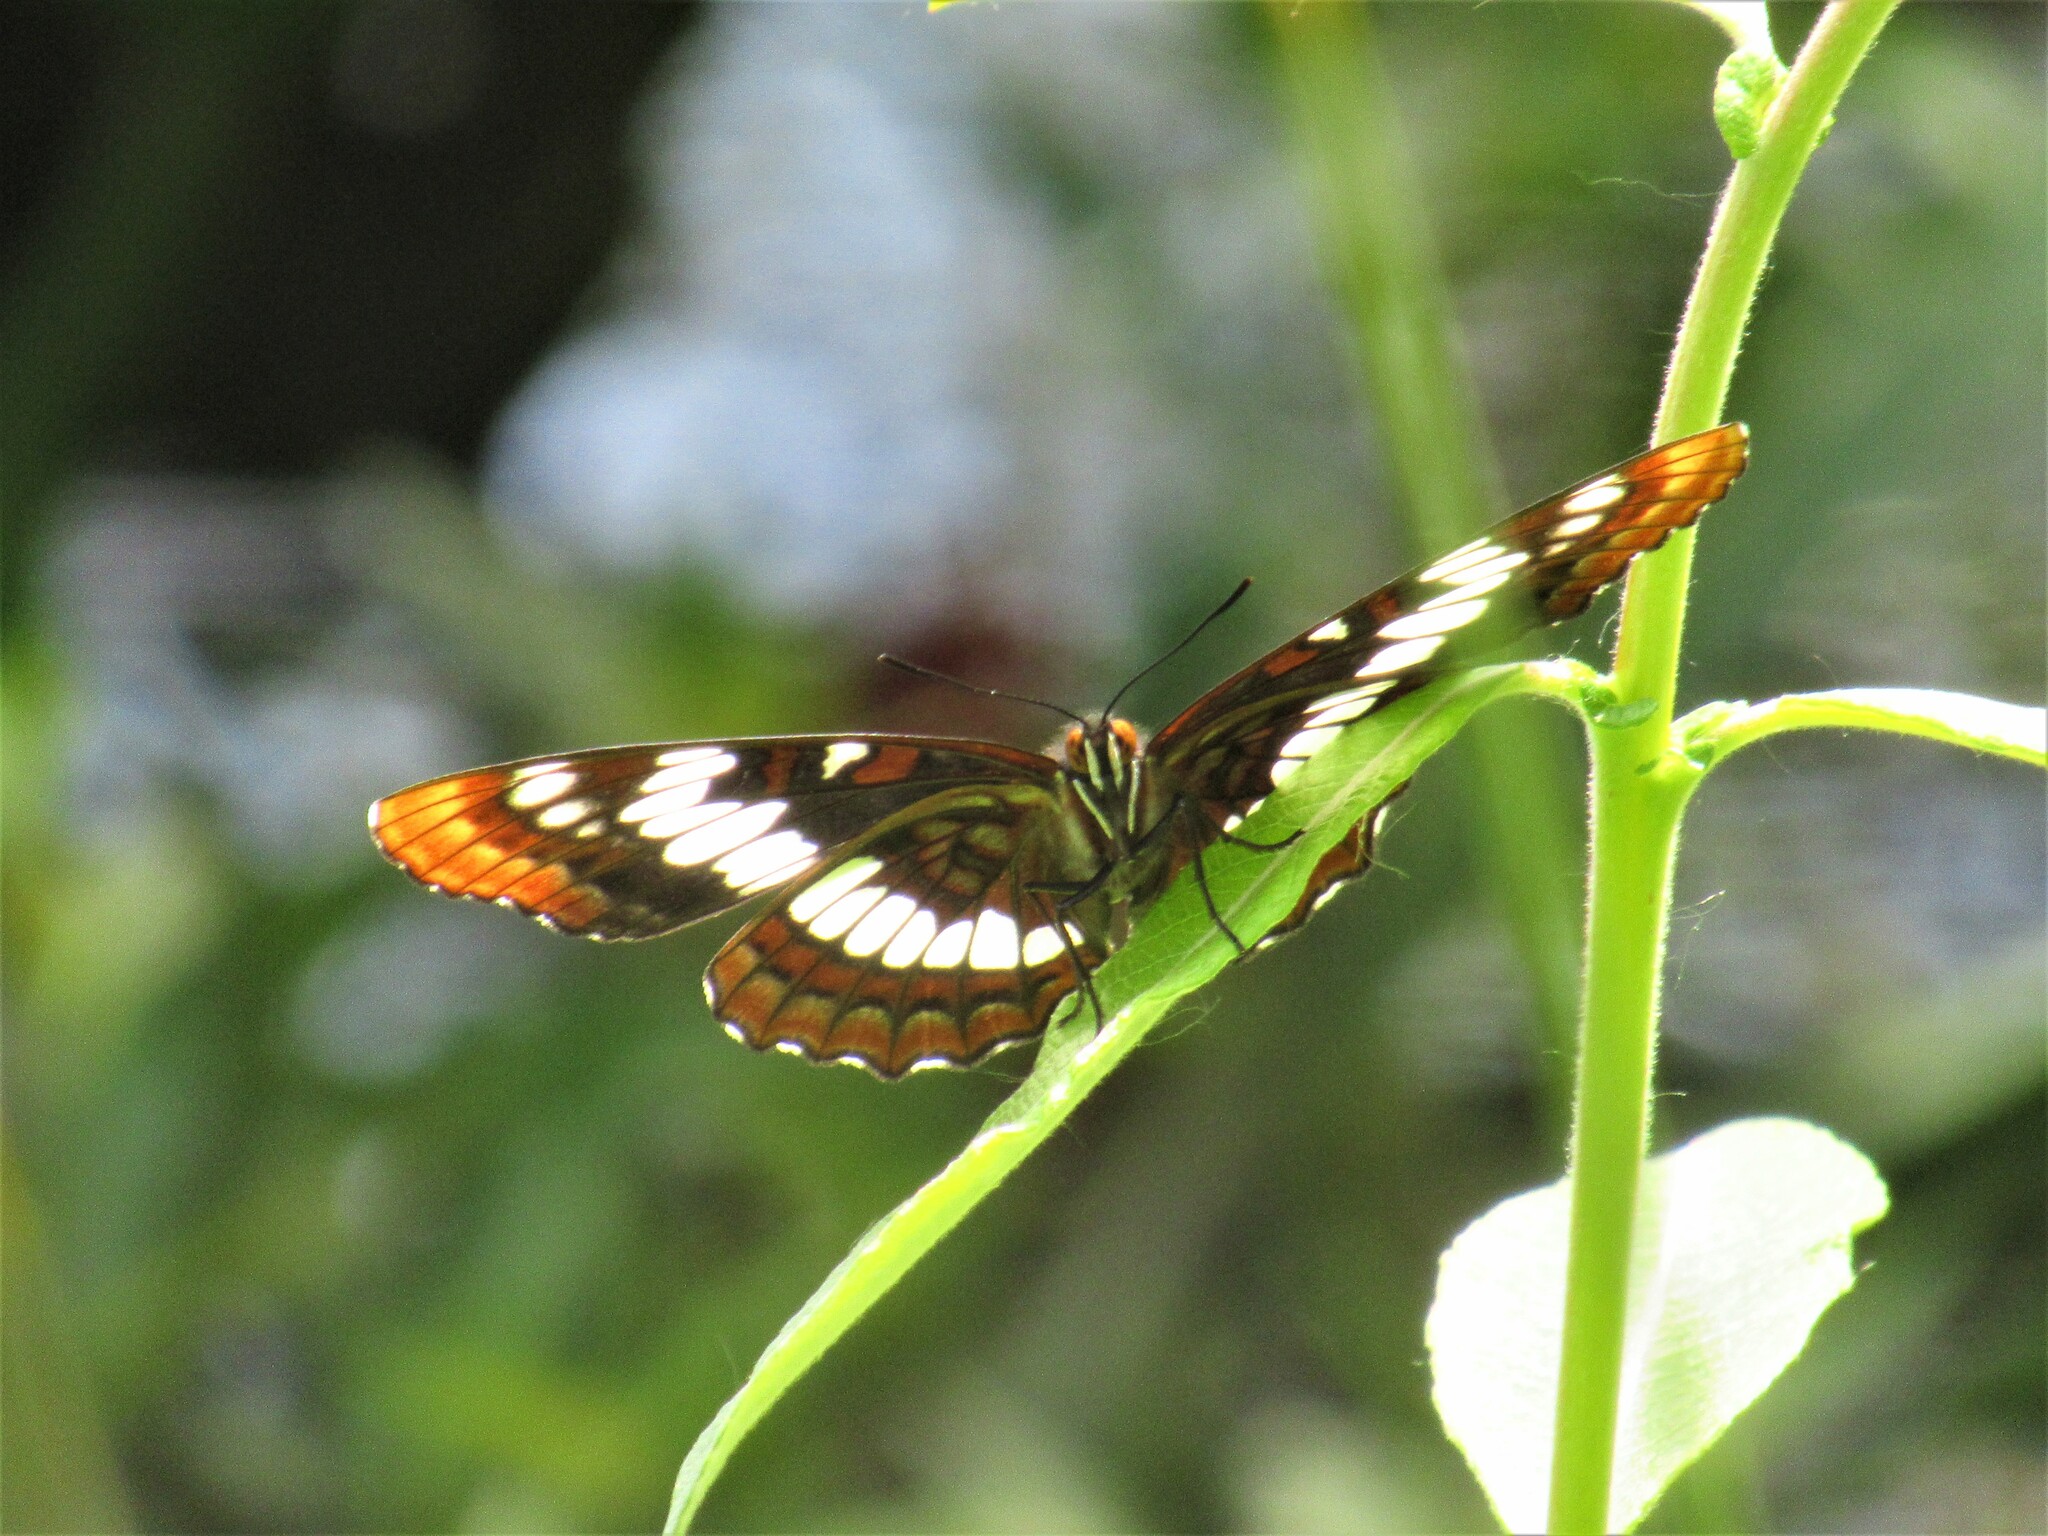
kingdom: Animalia
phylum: Arthropoda
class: Insecta
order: Lepidoptera
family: Nymphalidae
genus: Limenitis
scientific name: Limenitis lorquini
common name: Lorquin's admiral
